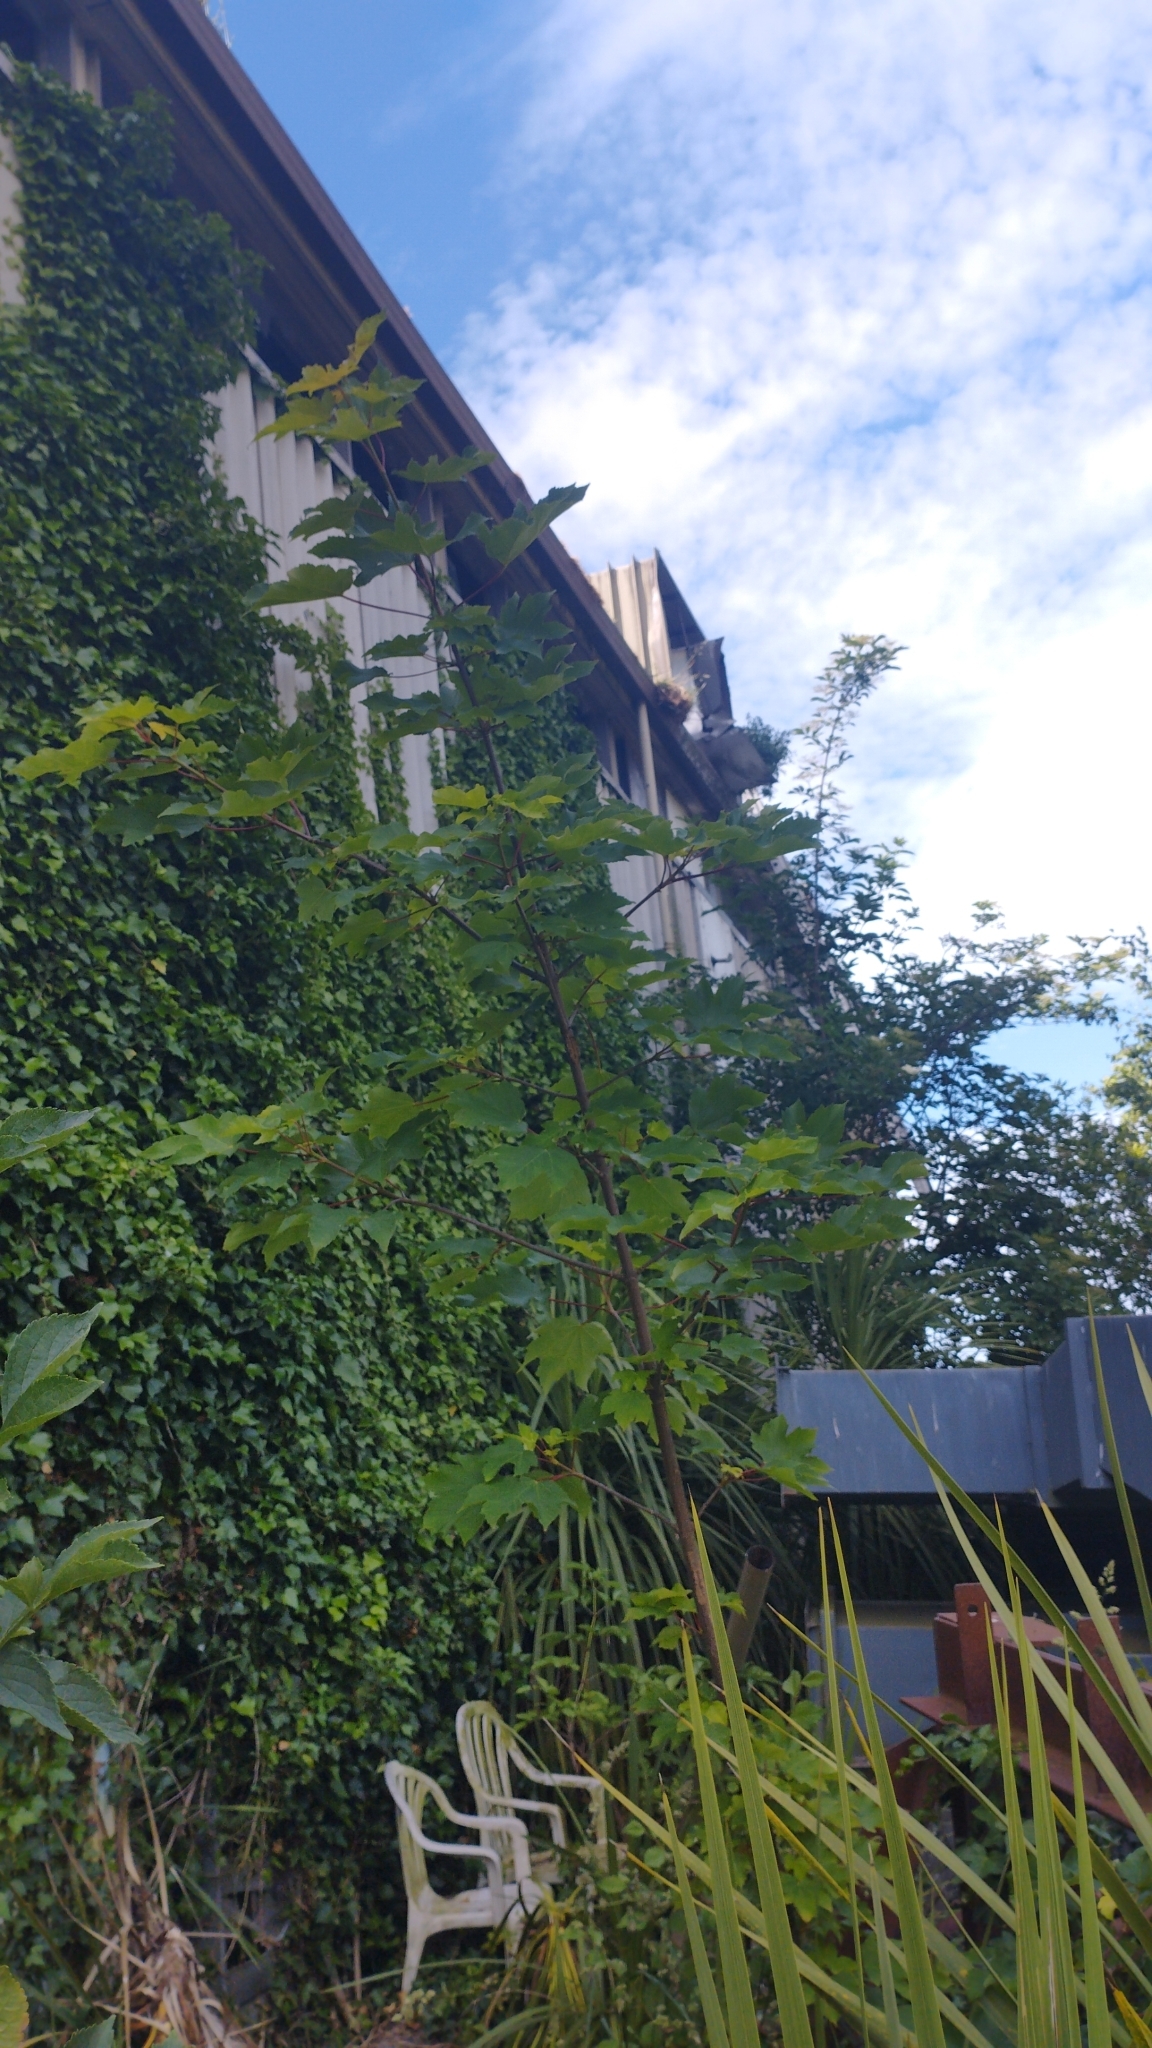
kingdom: Plantae
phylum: Tracheophyta
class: Magnoliopsida
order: Sapindales
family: Sapindaceae
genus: Acer
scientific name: Acer pseudoplatanus
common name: Sycamore
